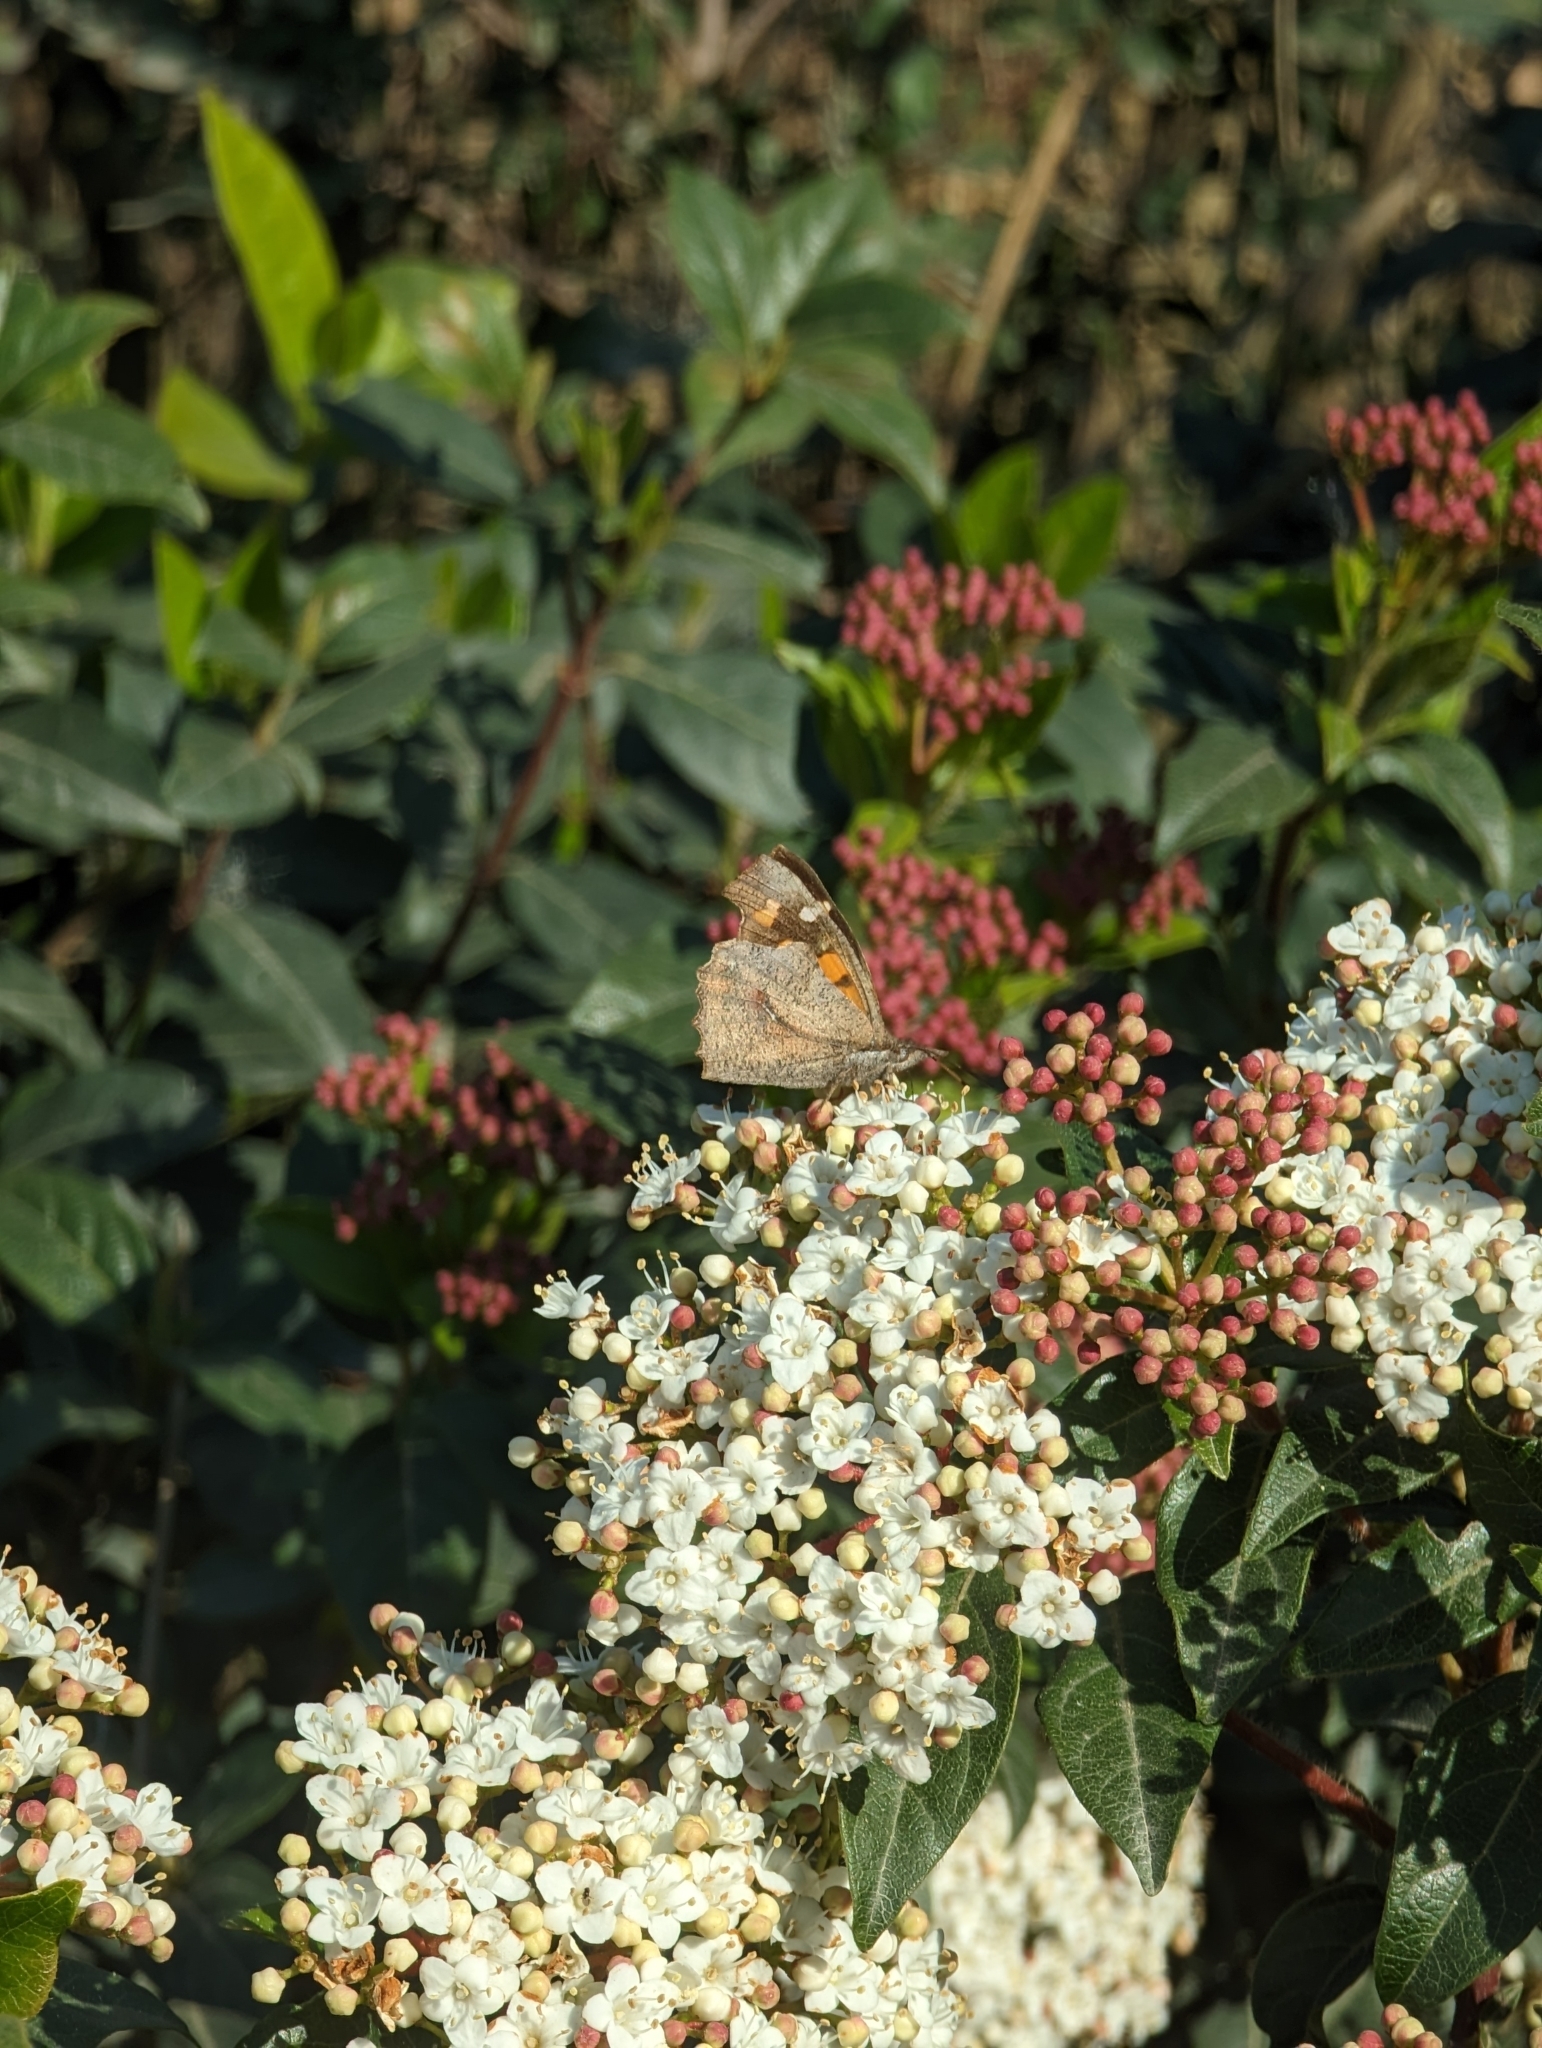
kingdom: Animalia
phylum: Arthropoda
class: Insecta
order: Lepidoptera
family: Nymphalidae
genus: Libythea
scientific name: Libythea celtis
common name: Nettle-tree butterfly
